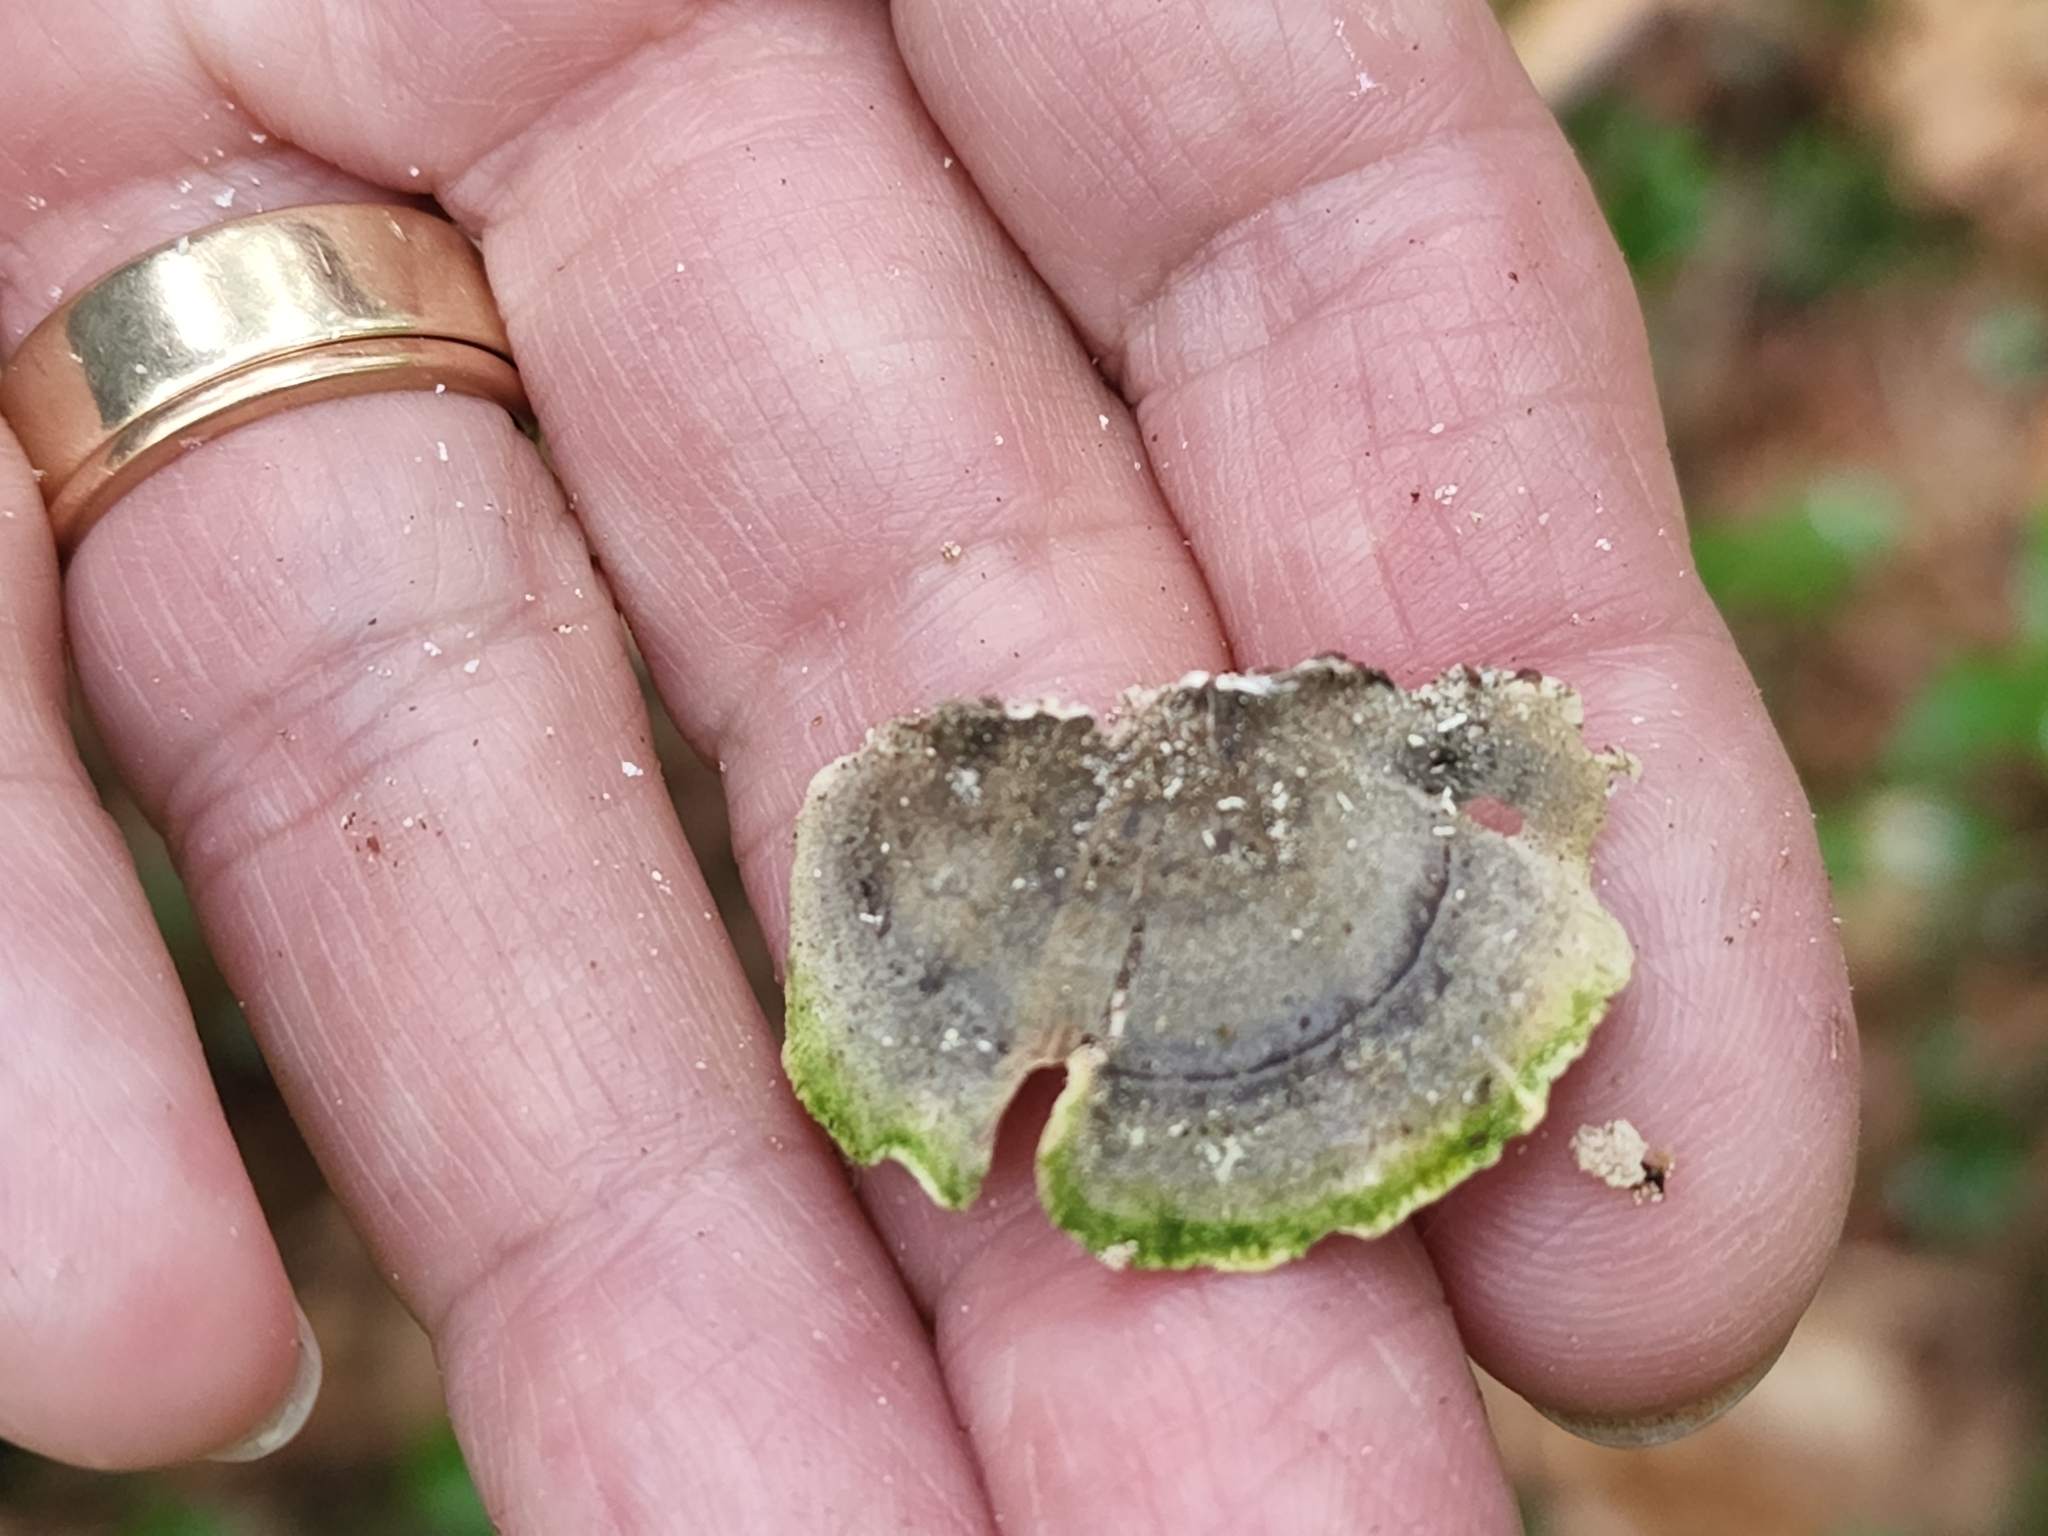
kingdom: Fungi
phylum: Basidiomycota
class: Agaricomycetes
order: Polyporales
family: Polyporaceae
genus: Trametes
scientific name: Trametes versicolor
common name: Turkeytail
